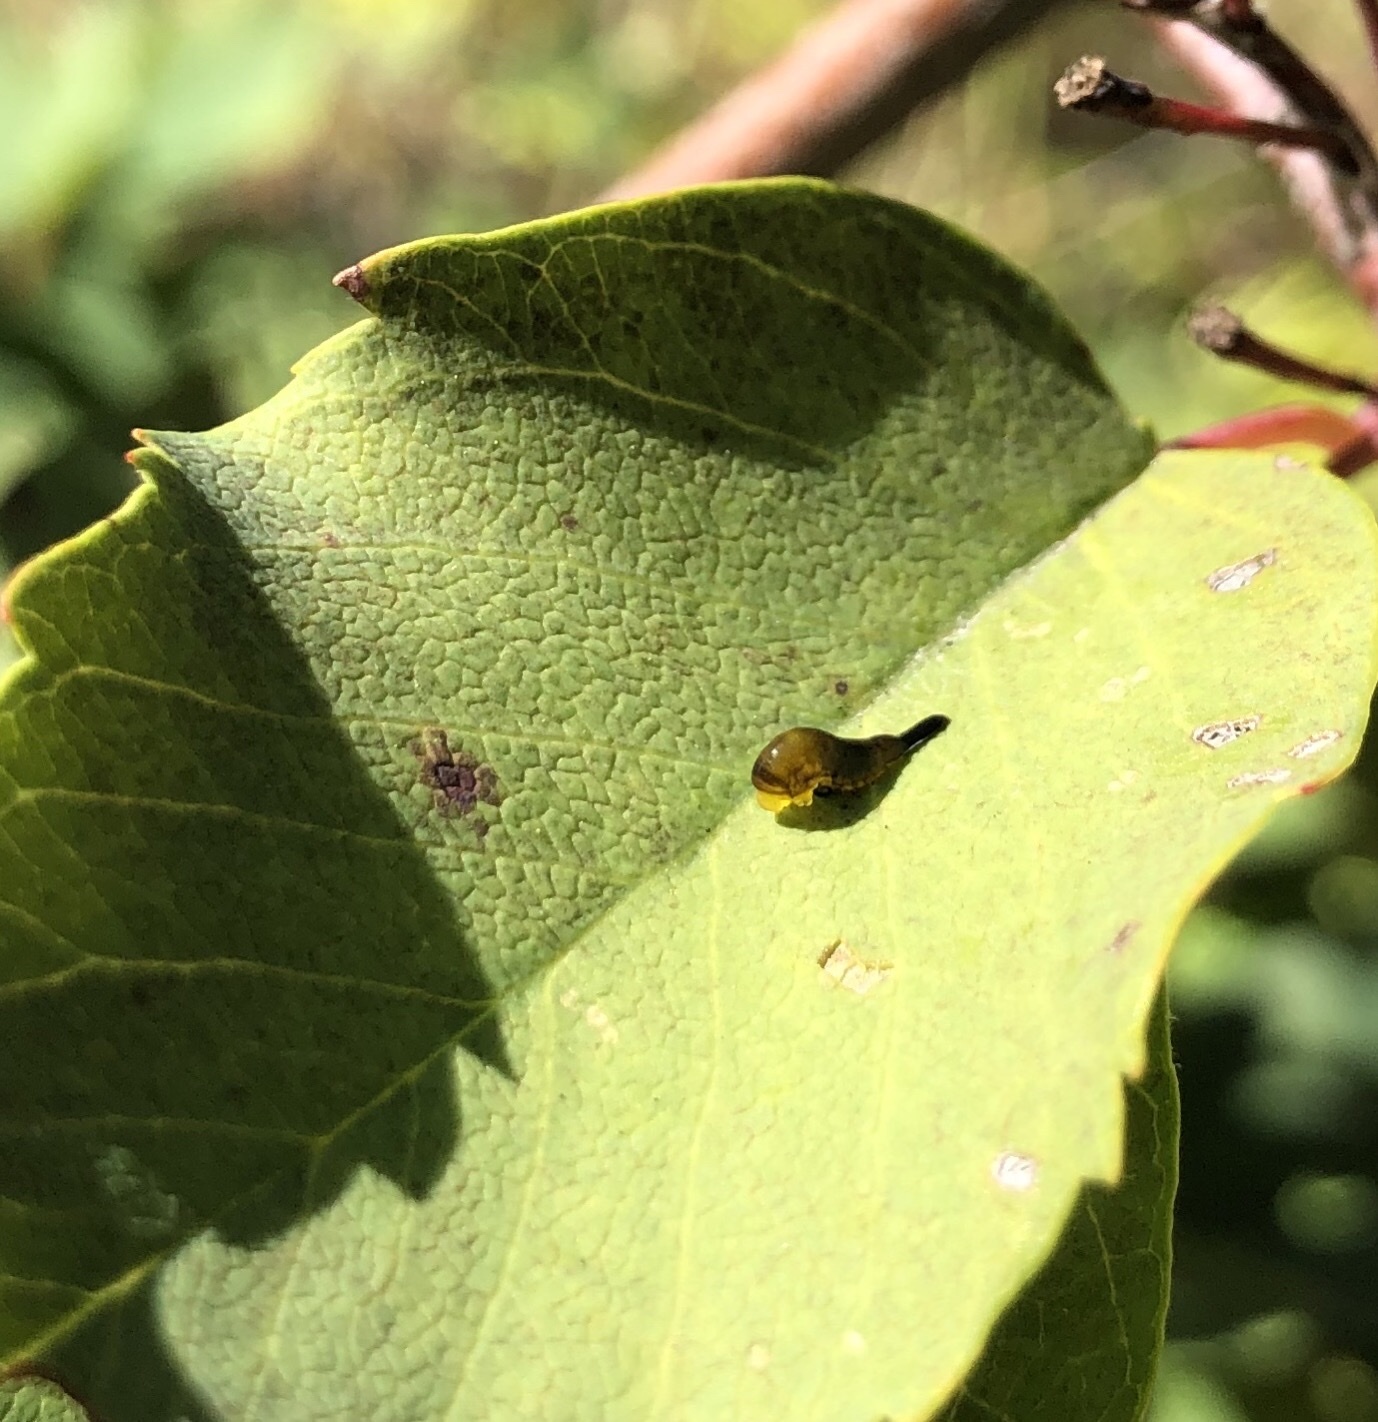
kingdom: Animalia
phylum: Arthropoda
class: Insecta
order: Hymenoptera
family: Tenthredinidae
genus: Caliroa
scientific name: Caliroa cerasi
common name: Pear sawfly
